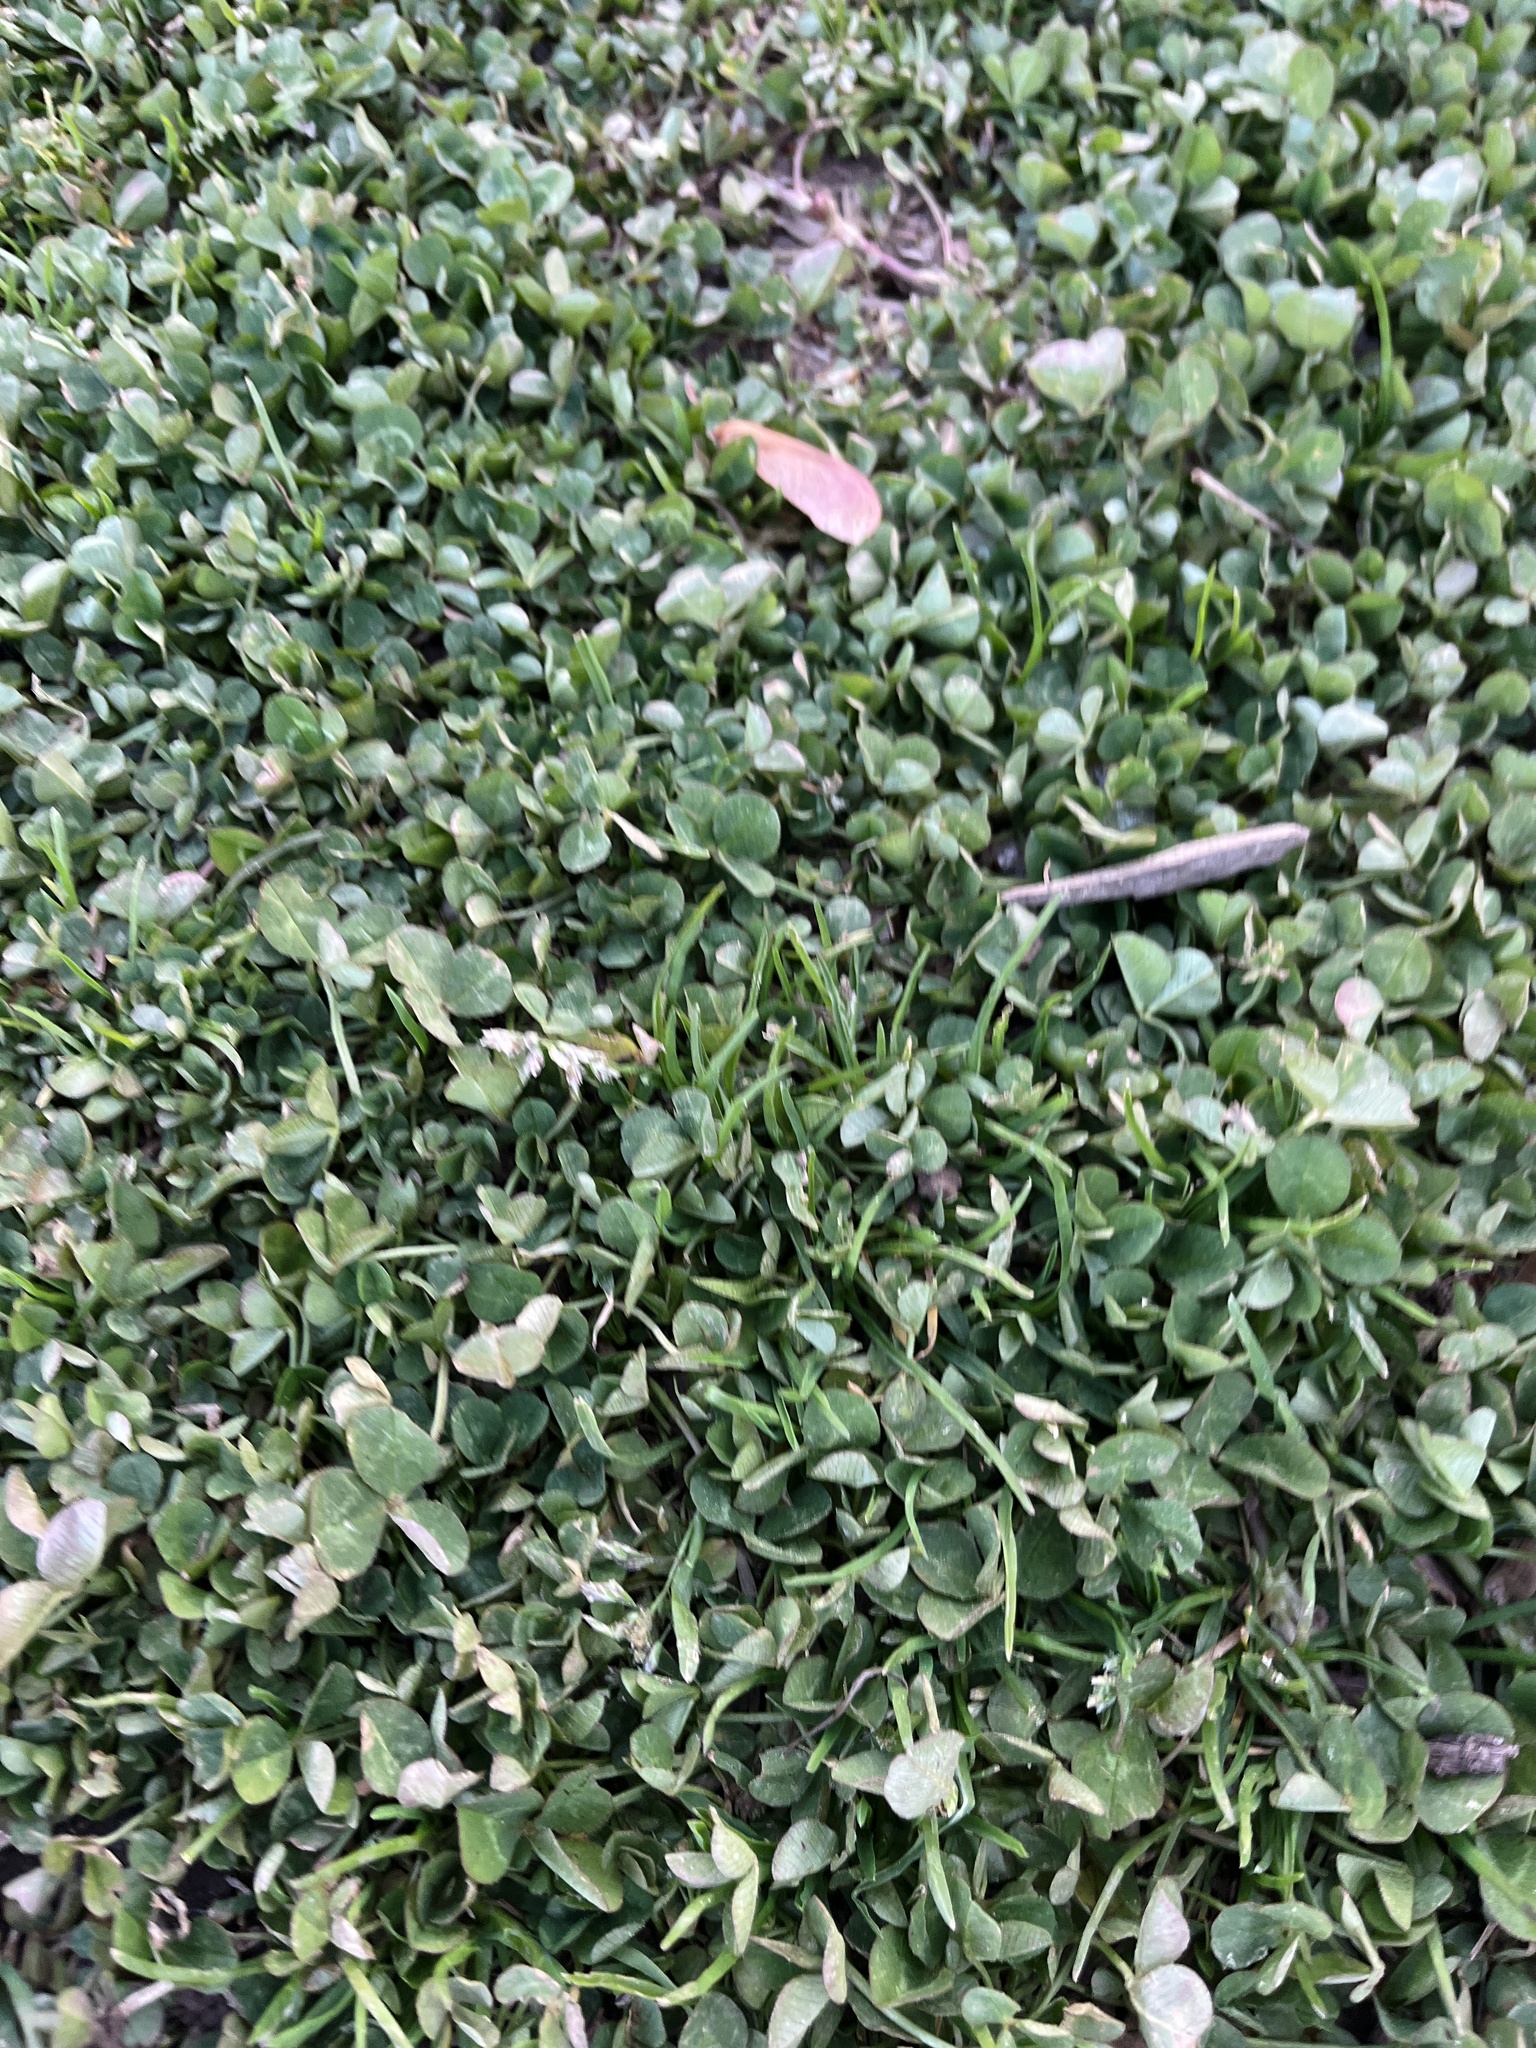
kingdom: Plantae
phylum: Tracheophyta
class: Magnoliopsida
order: Fabales
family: Fabaceae
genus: Trifolium
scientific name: Trifolium repens
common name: White clover
